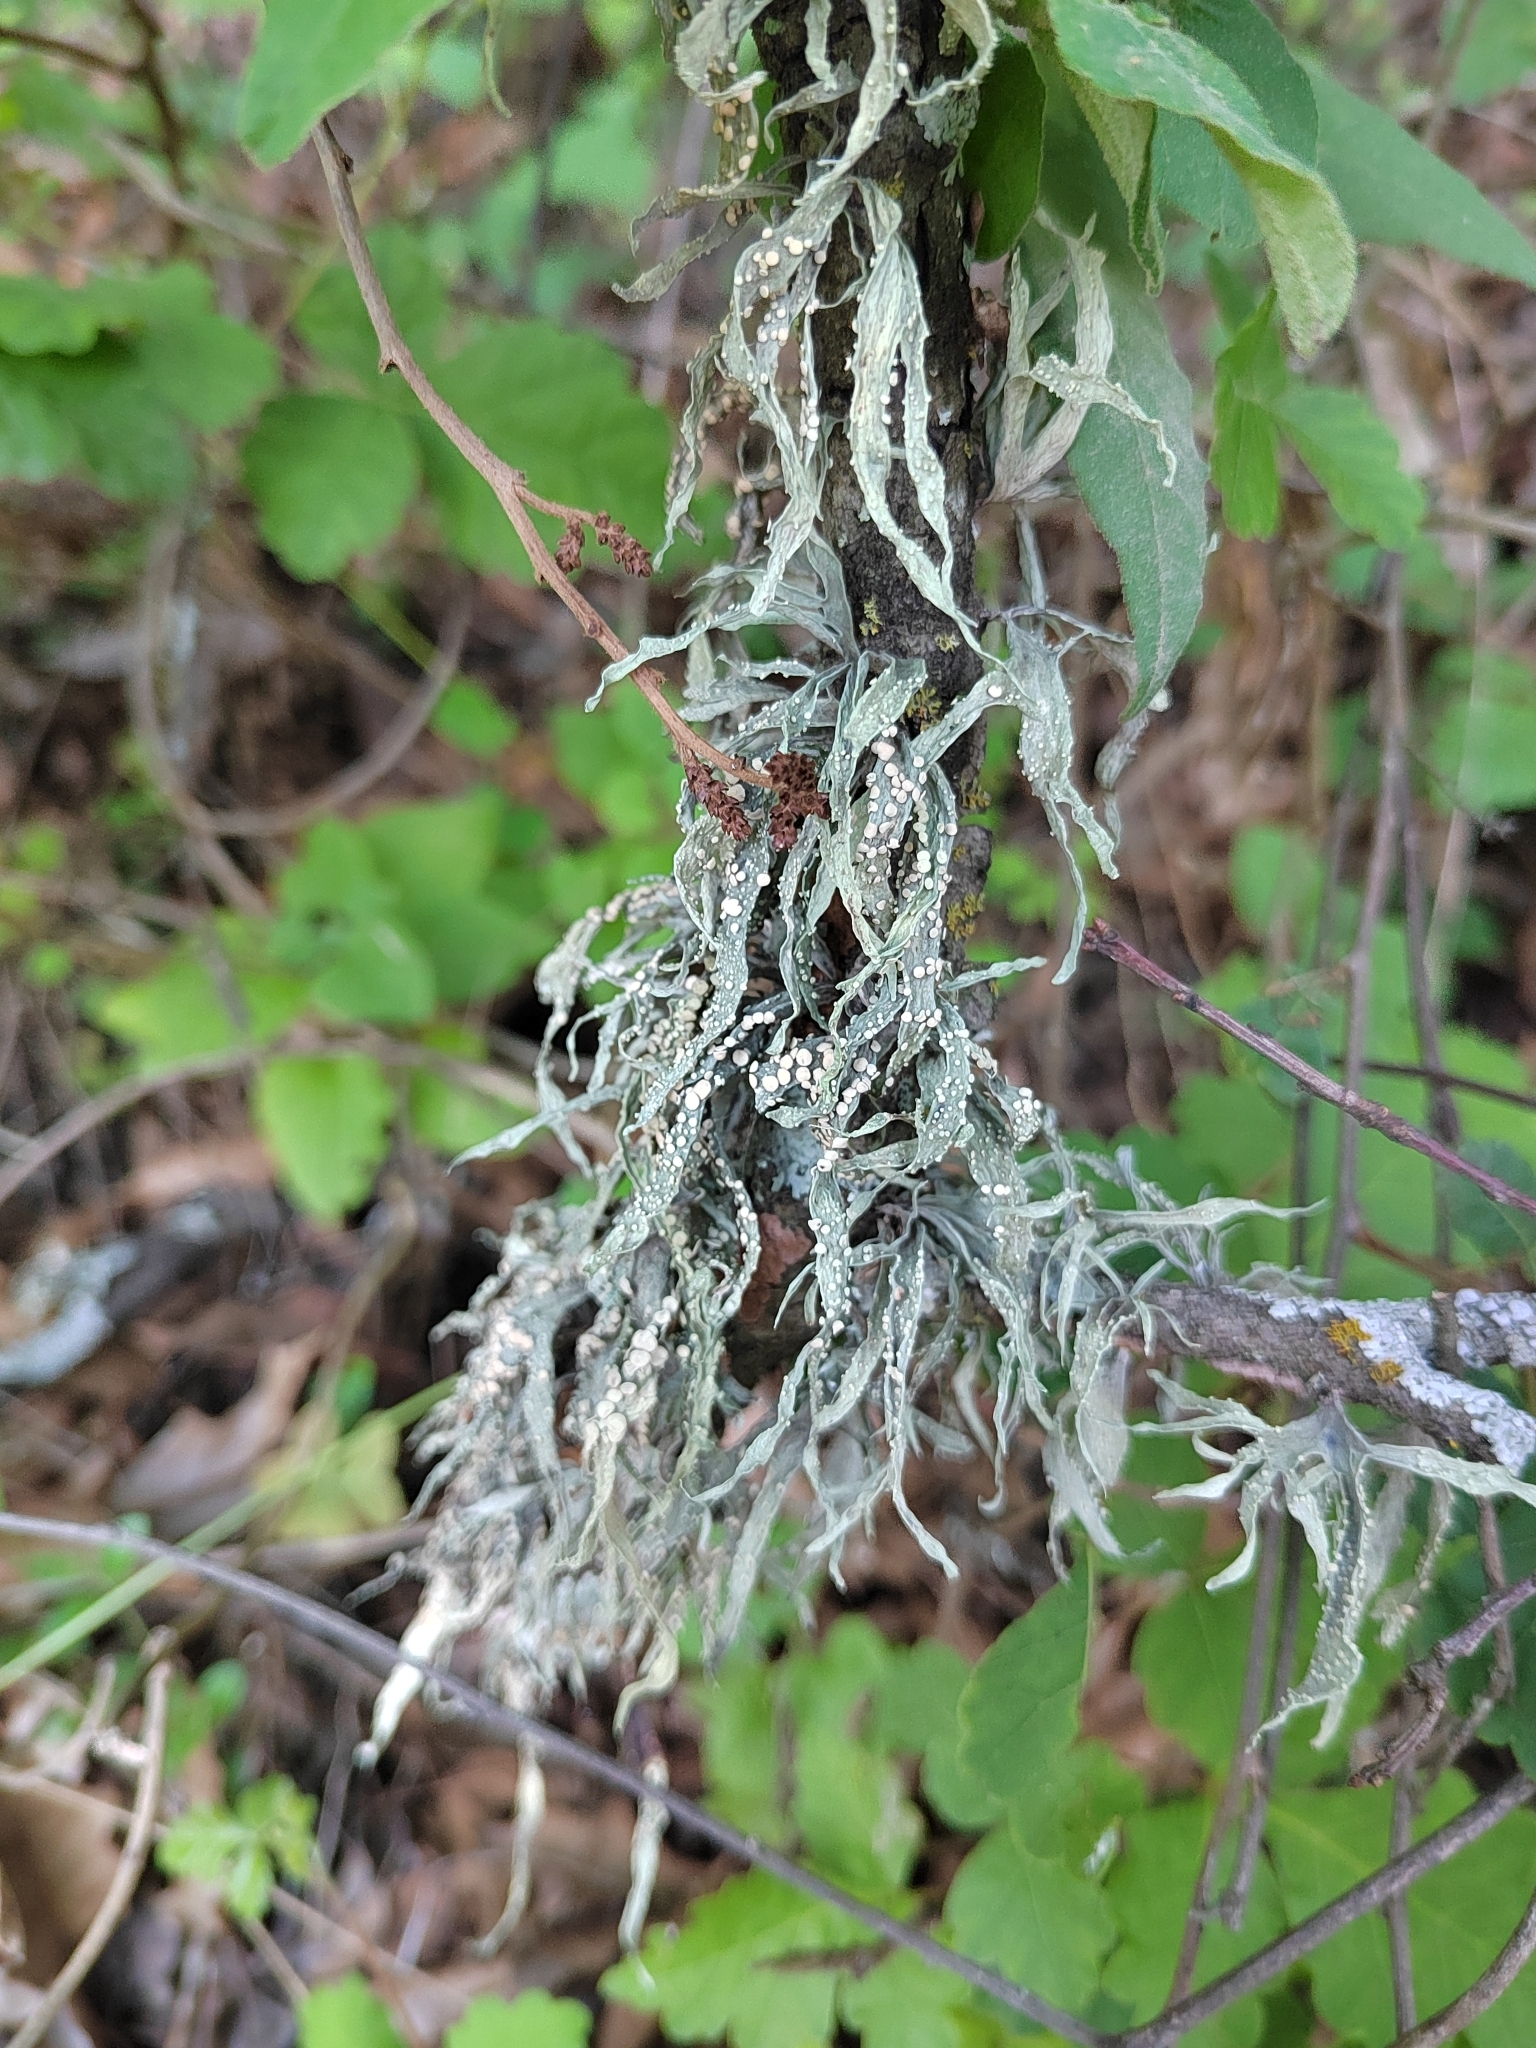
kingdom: Fungi
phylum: Ascomycota
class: Lecanoromycetes
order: Lecanorales
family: Ramalinaceae
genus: Ramalina
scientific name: Ramalina celastri
